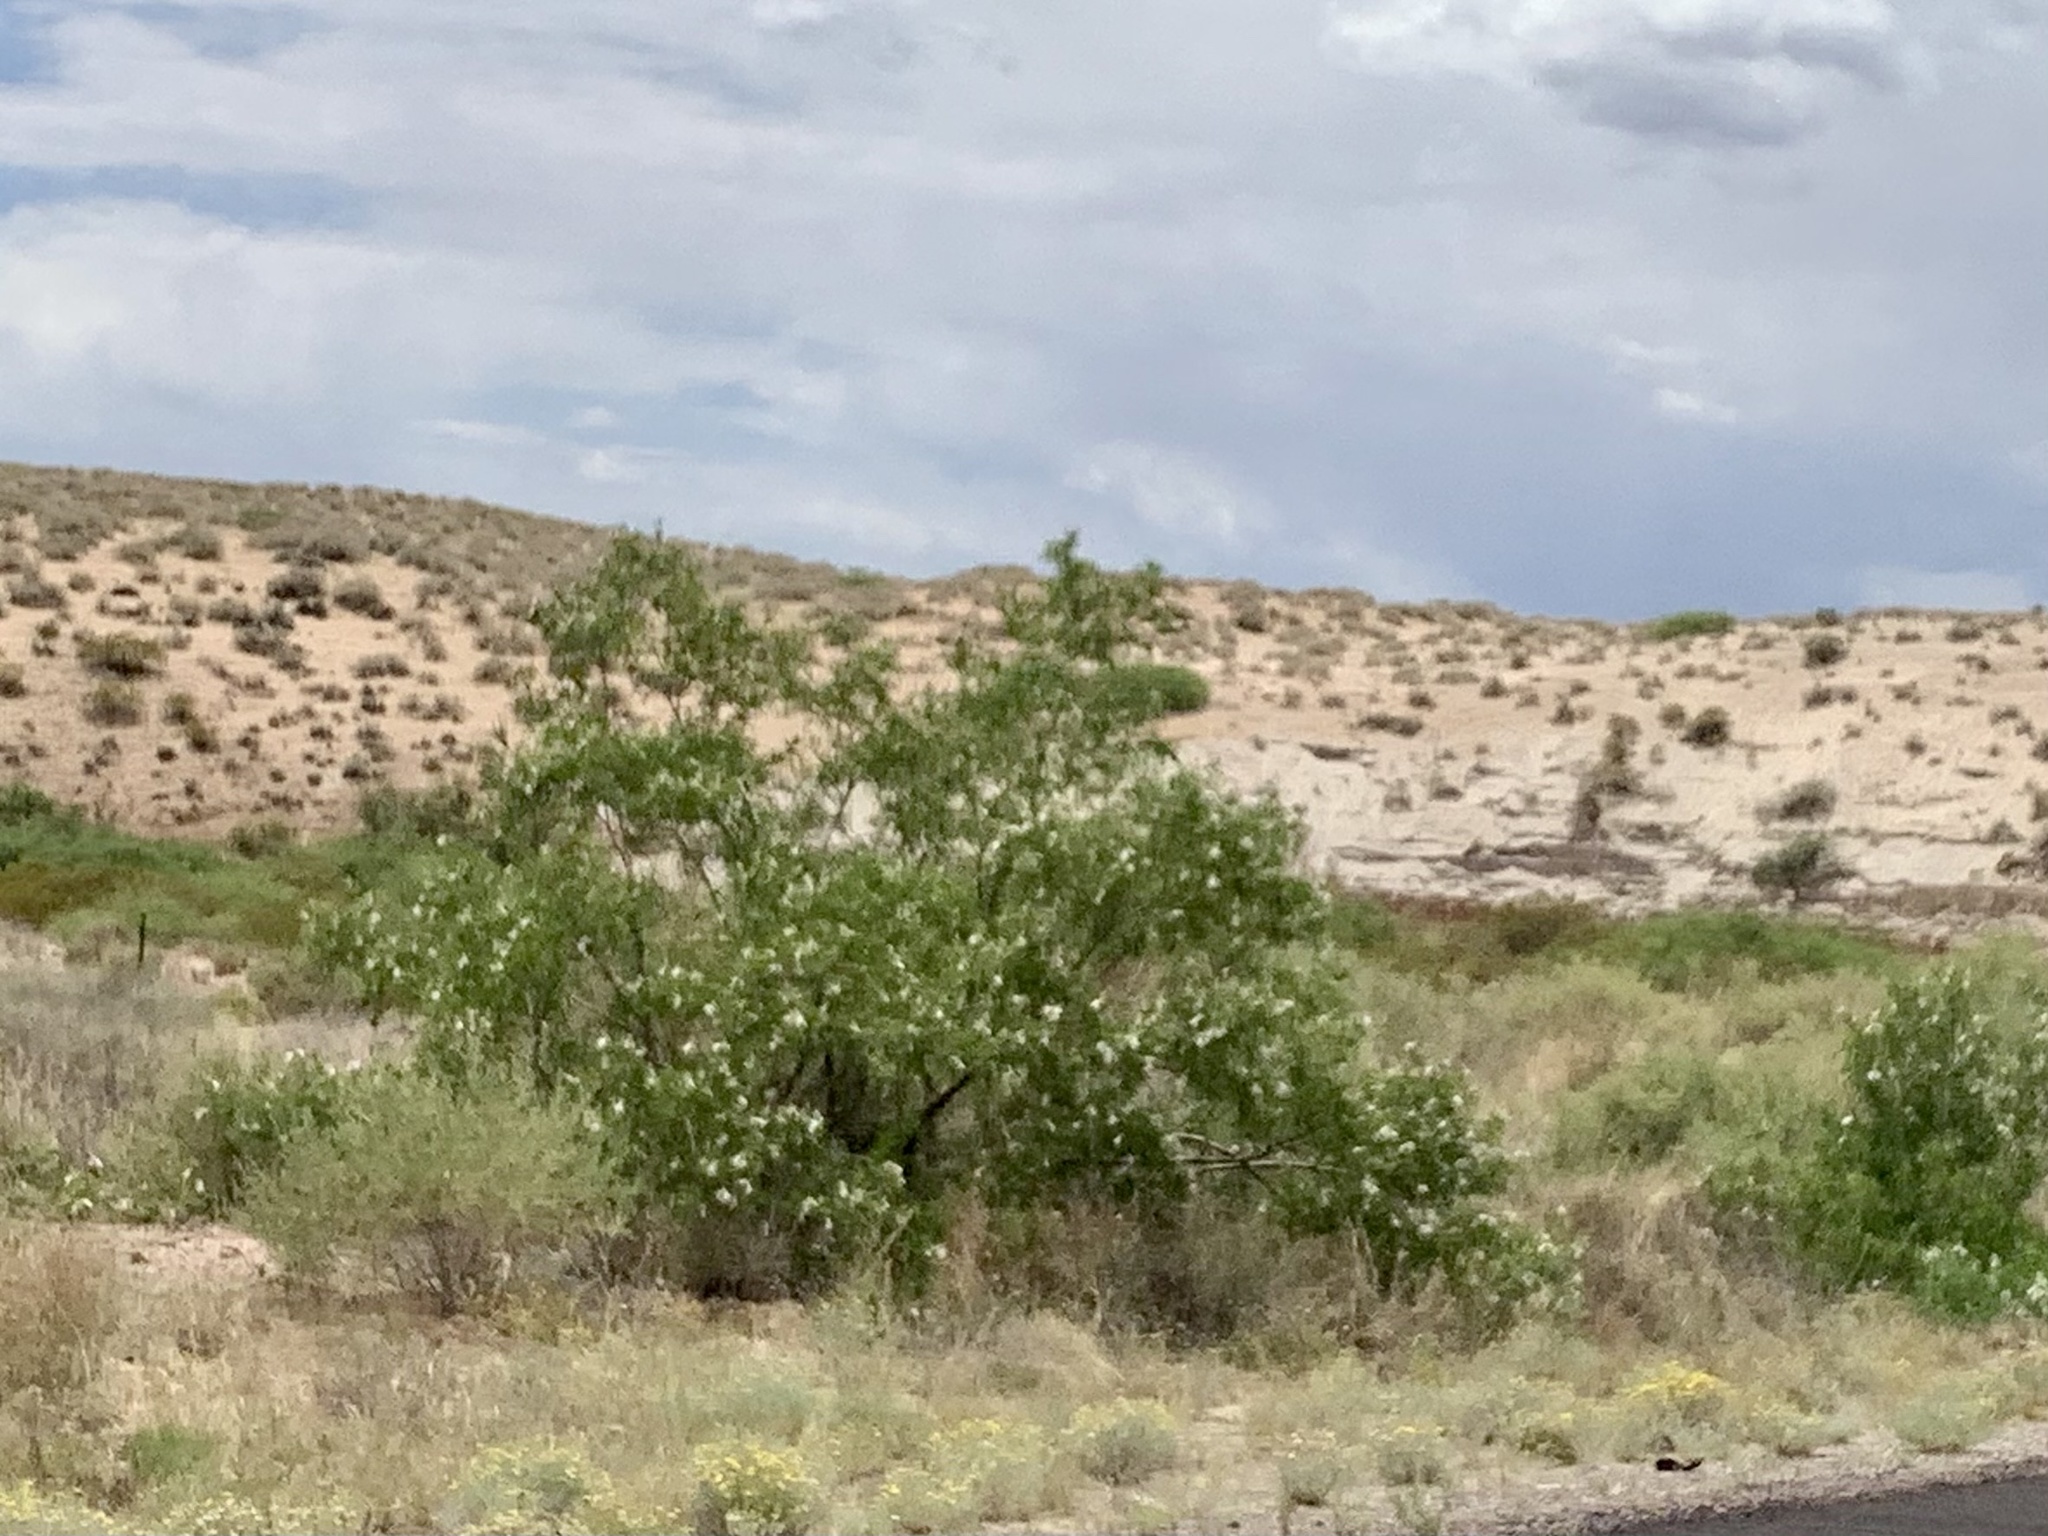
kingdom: Plantae
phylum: Tracheophyta
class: Magnoliopsida
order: Lamiales
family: Bignoniaceae
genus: Chilopsis
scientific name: Chilopsis linearis
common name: Desert-willow
